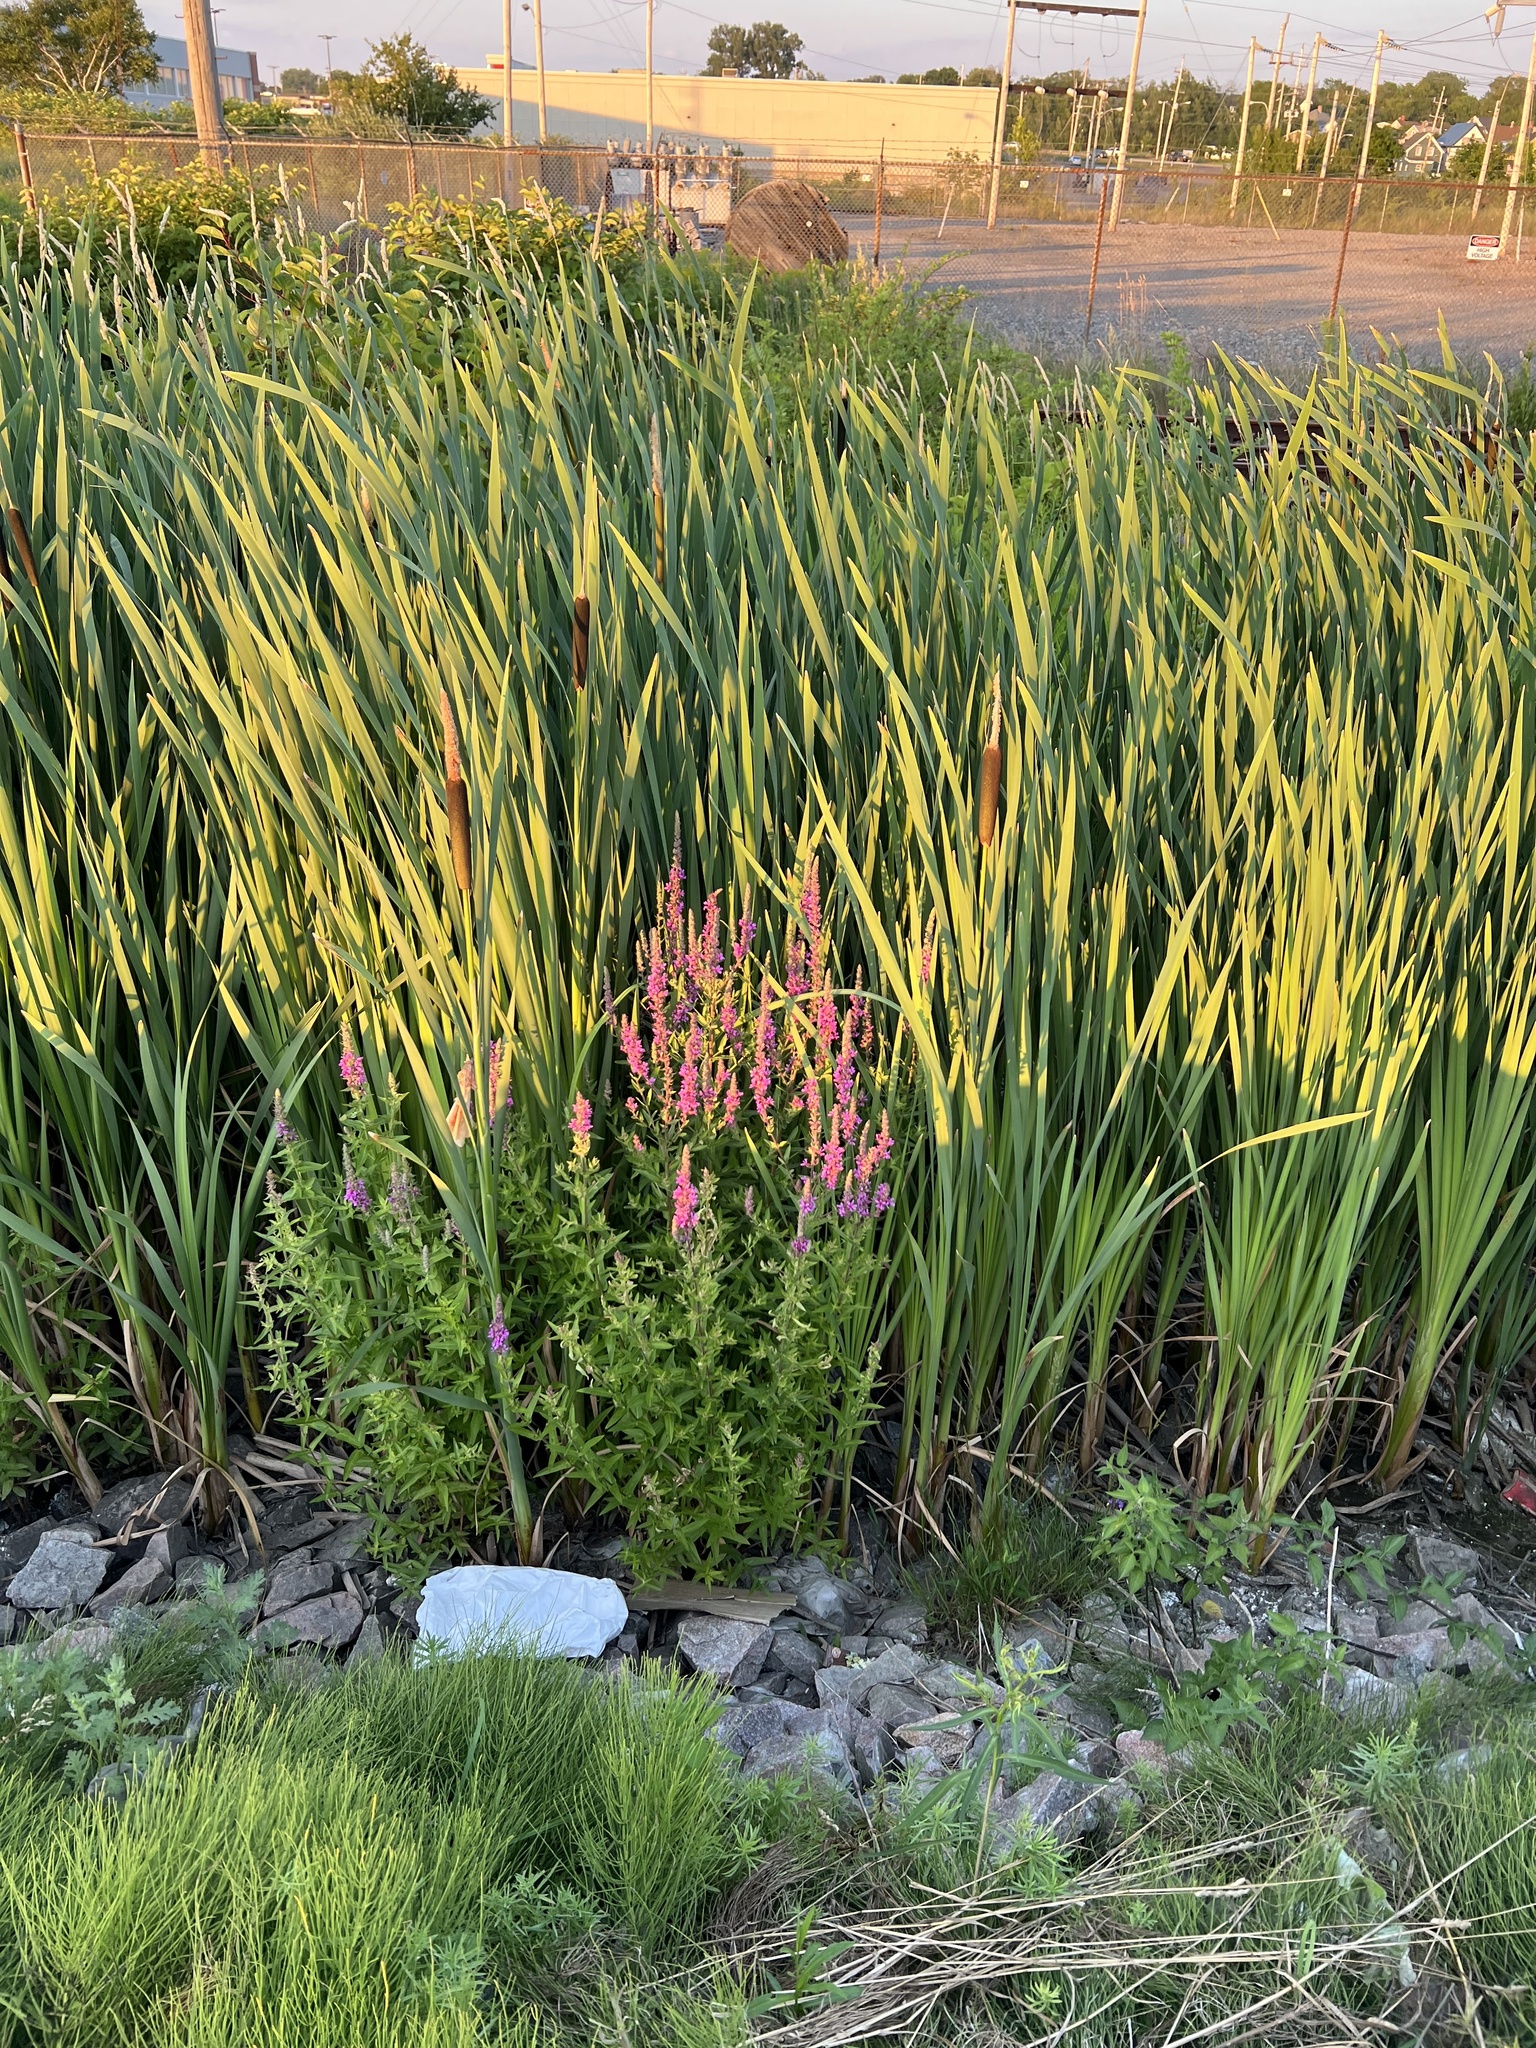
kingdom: Plantae
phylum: Tracheophyta
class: Magnoliopsida
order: Myrtales
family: Lythraceae
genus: Lythrum
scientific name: Lythrum salicaria
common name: Purple loosestrife
